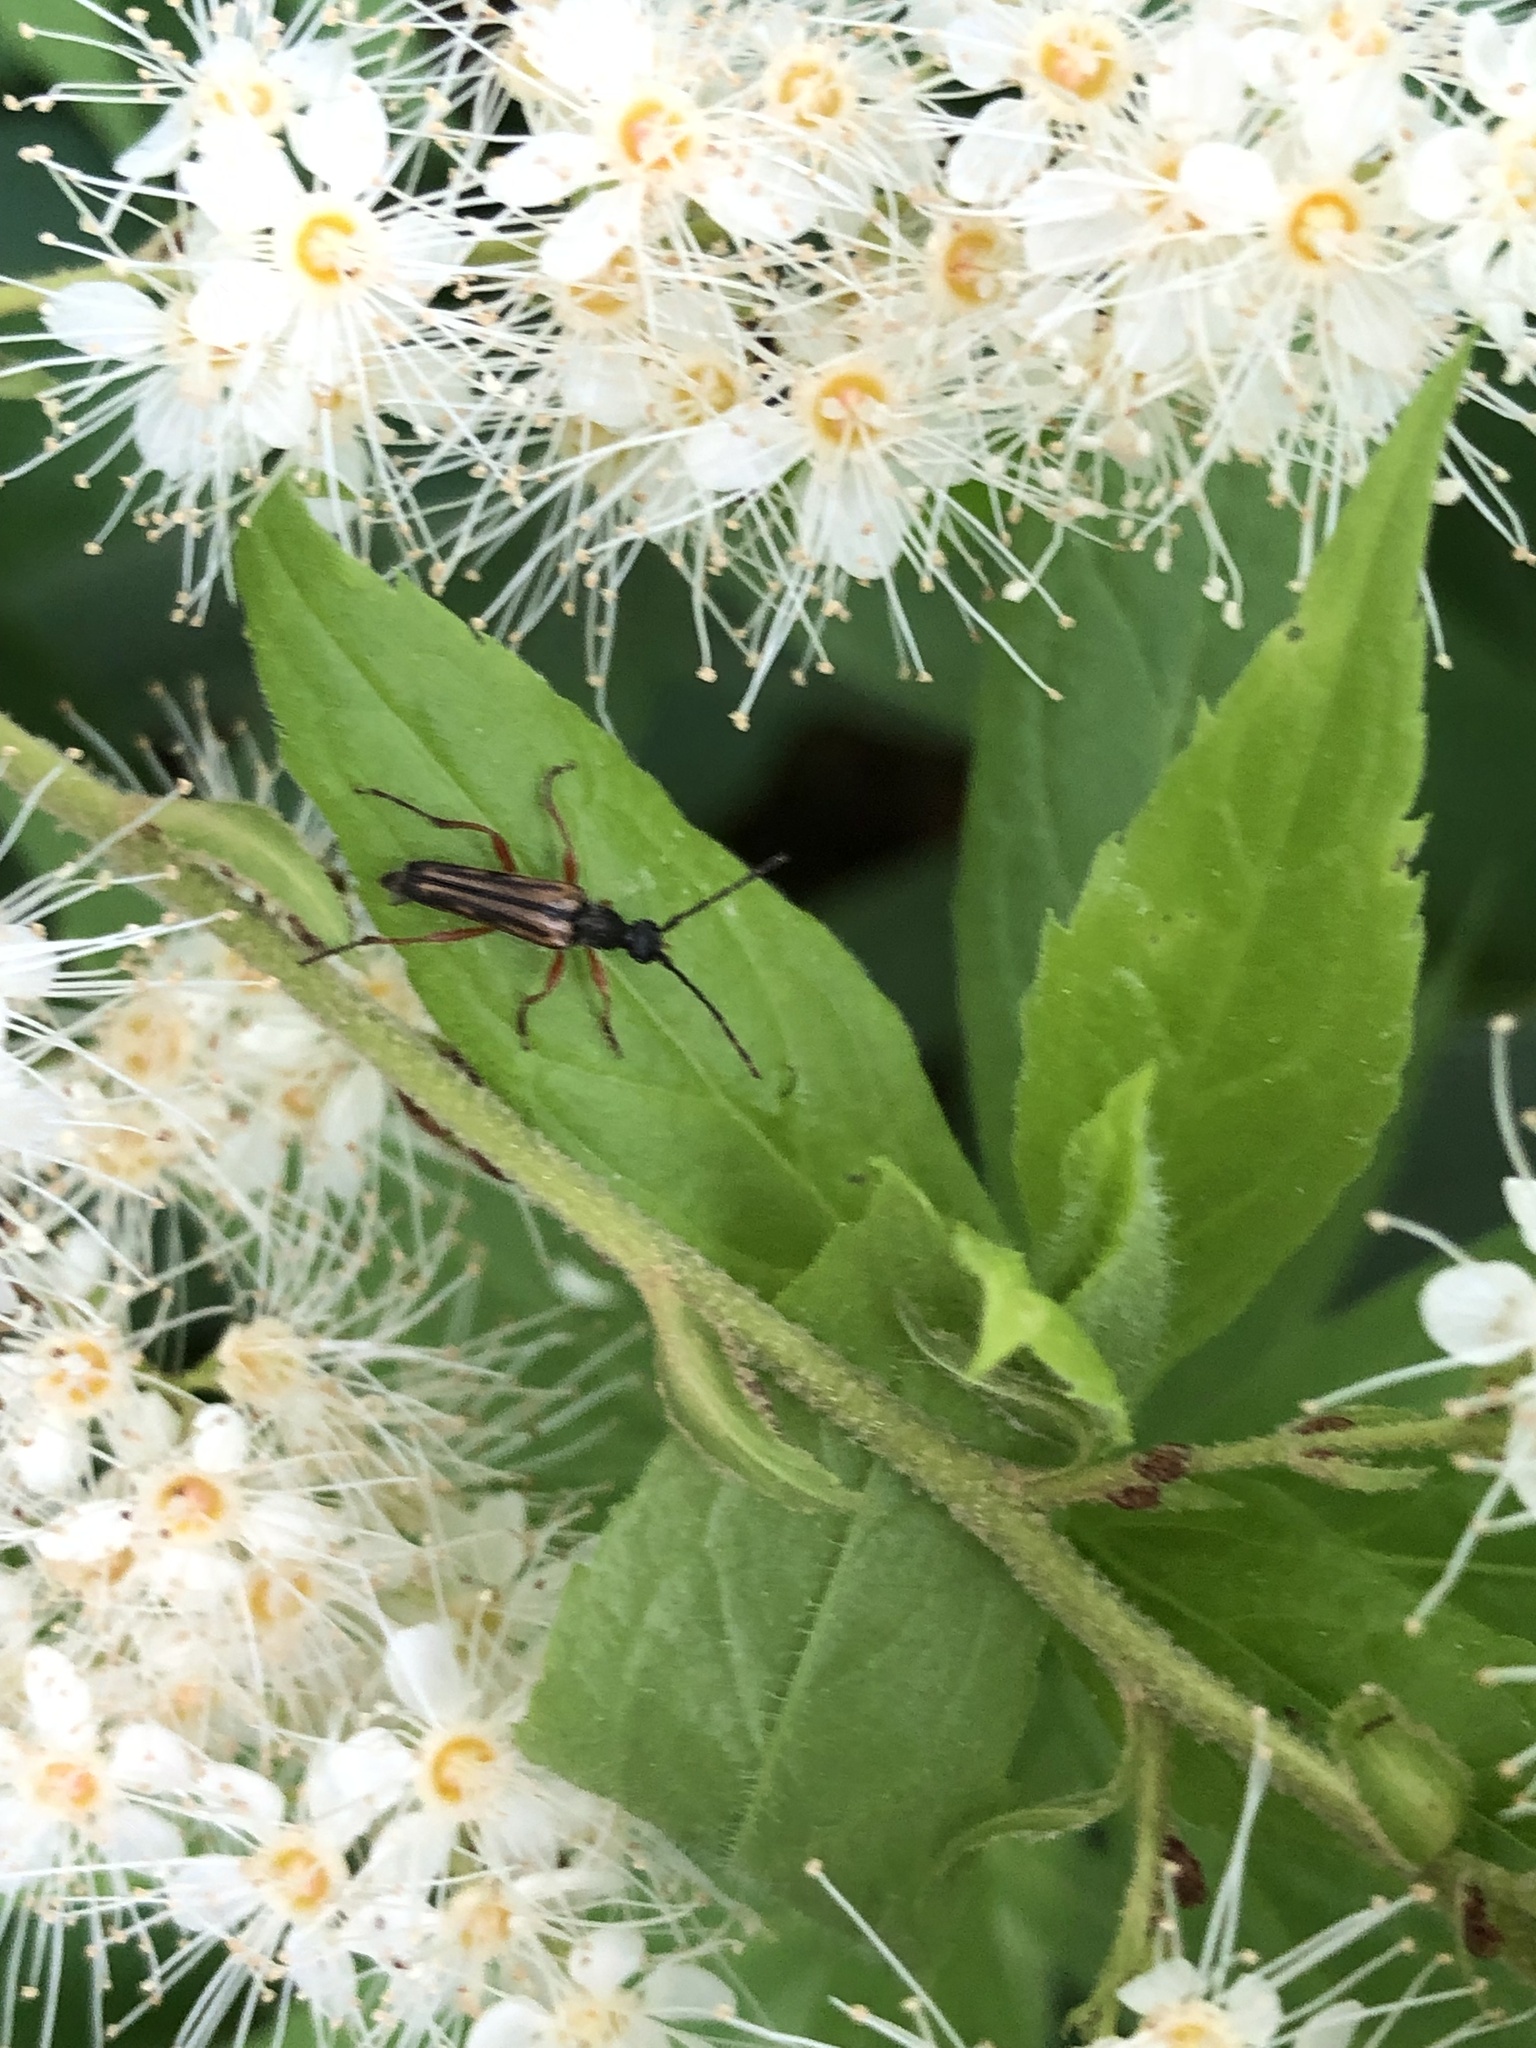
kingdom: Animalia
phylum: Arthropoda
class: Insecta
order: Coleoptera
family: Cerambycidae
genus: Analeptura
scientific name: Analeptura lineola
